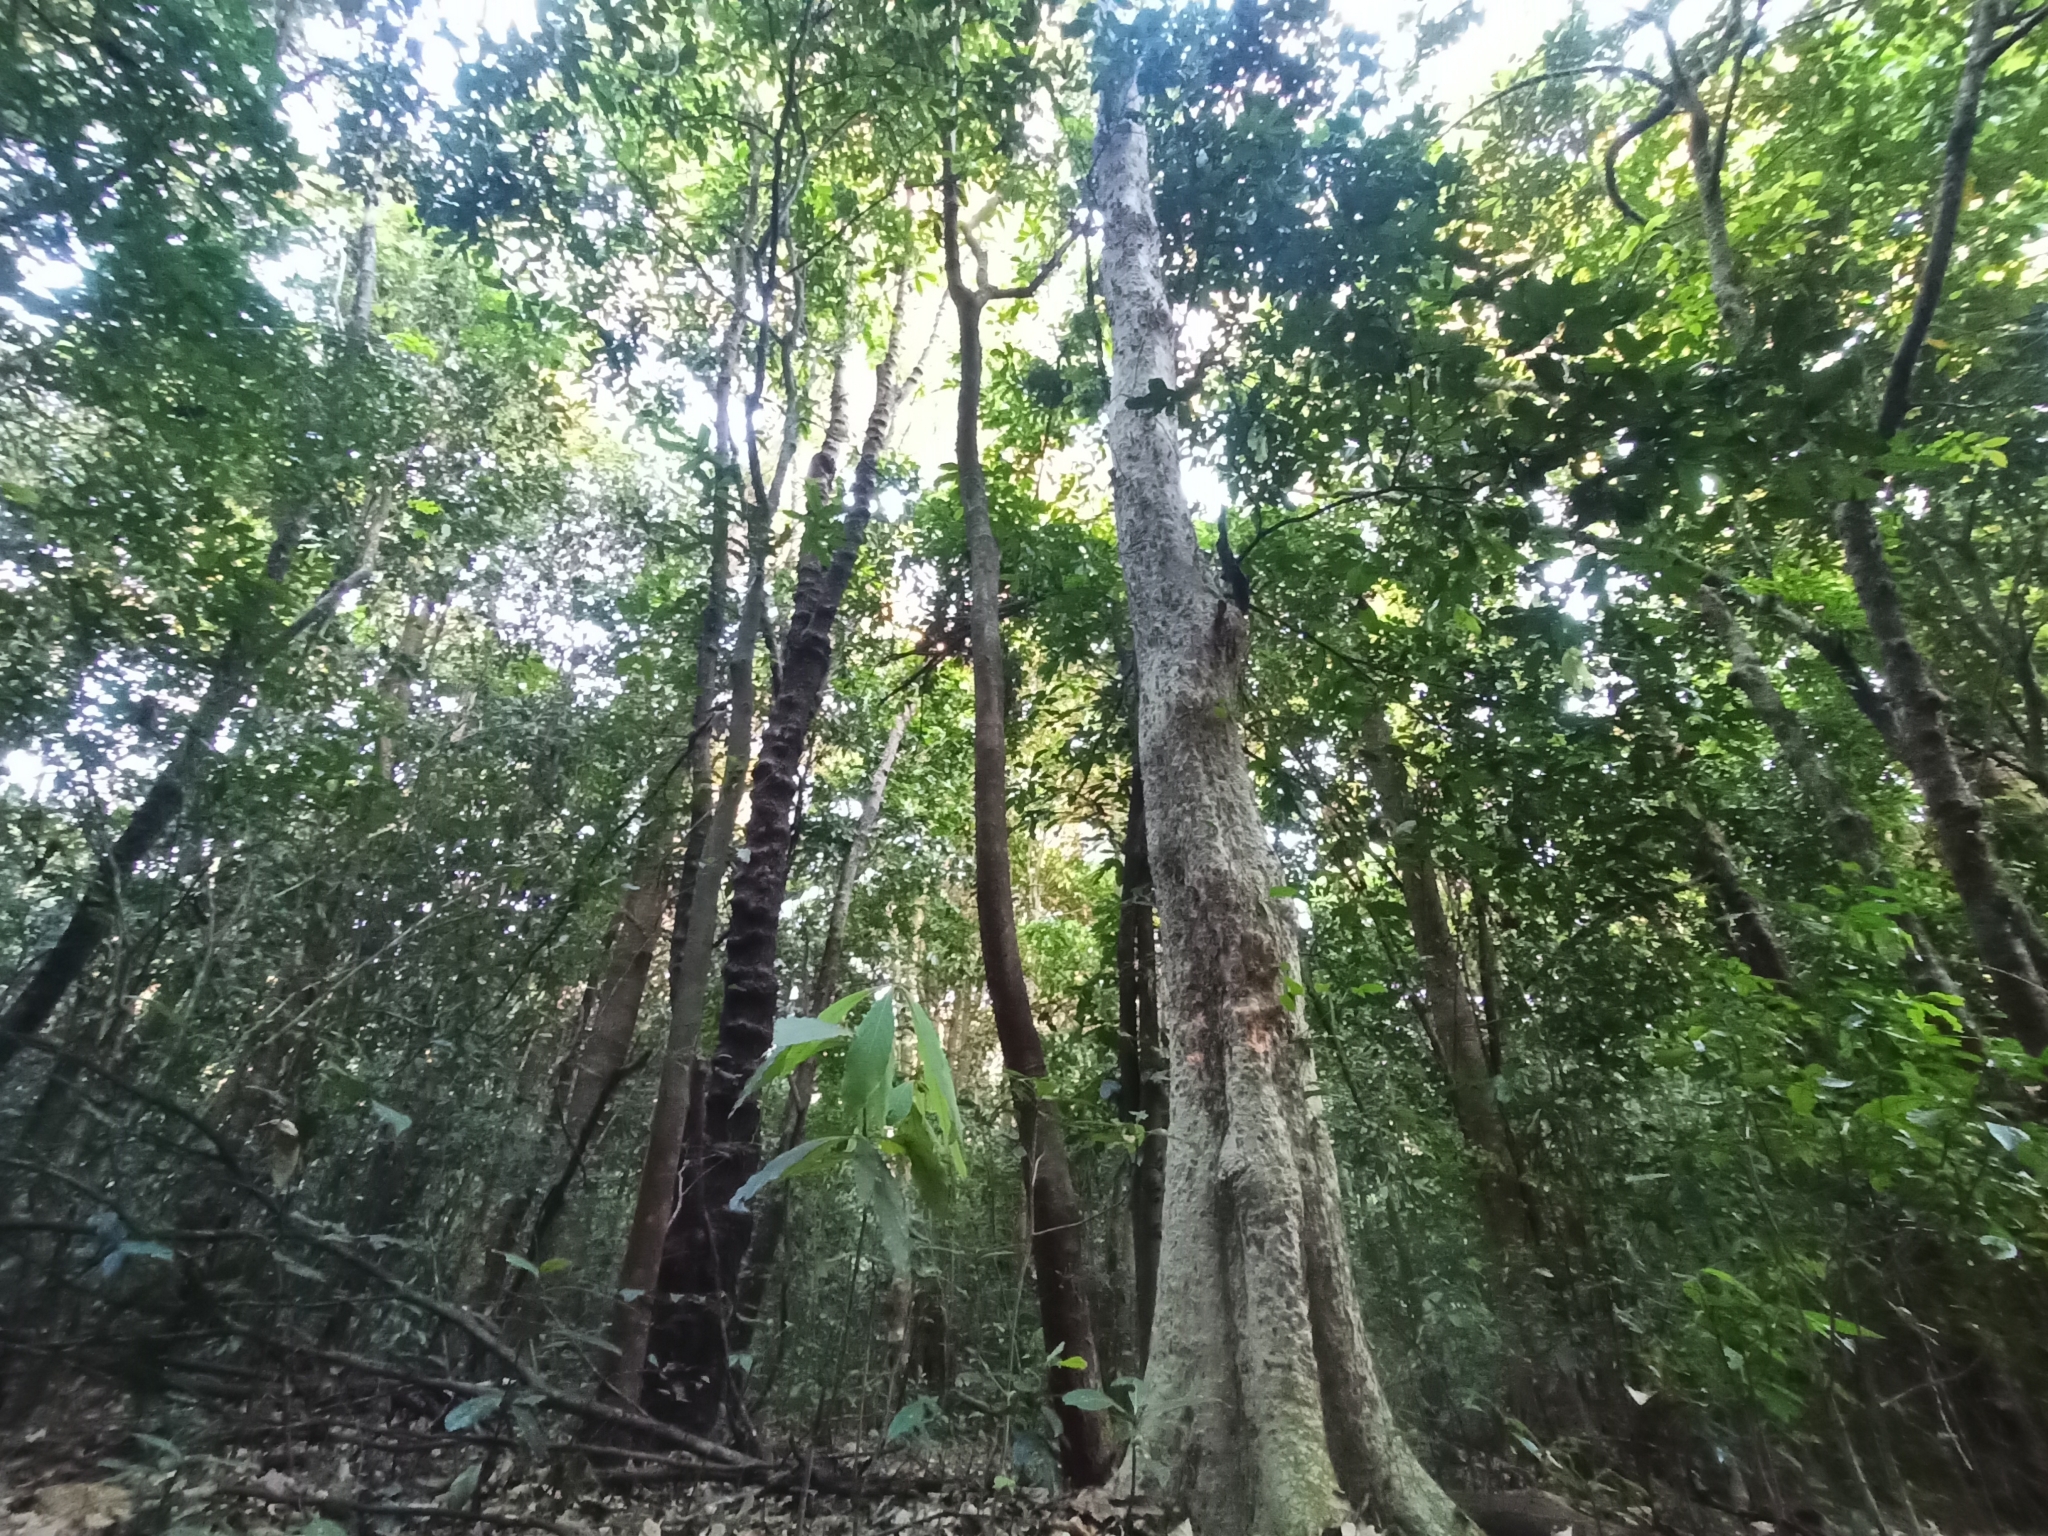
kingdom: Plantae
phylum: Tracheophyta
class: Magnoliopsida
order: Myrtales
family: Lythraceae
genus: Lagerstroemia
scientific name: Lagerstroemia microcarpa
